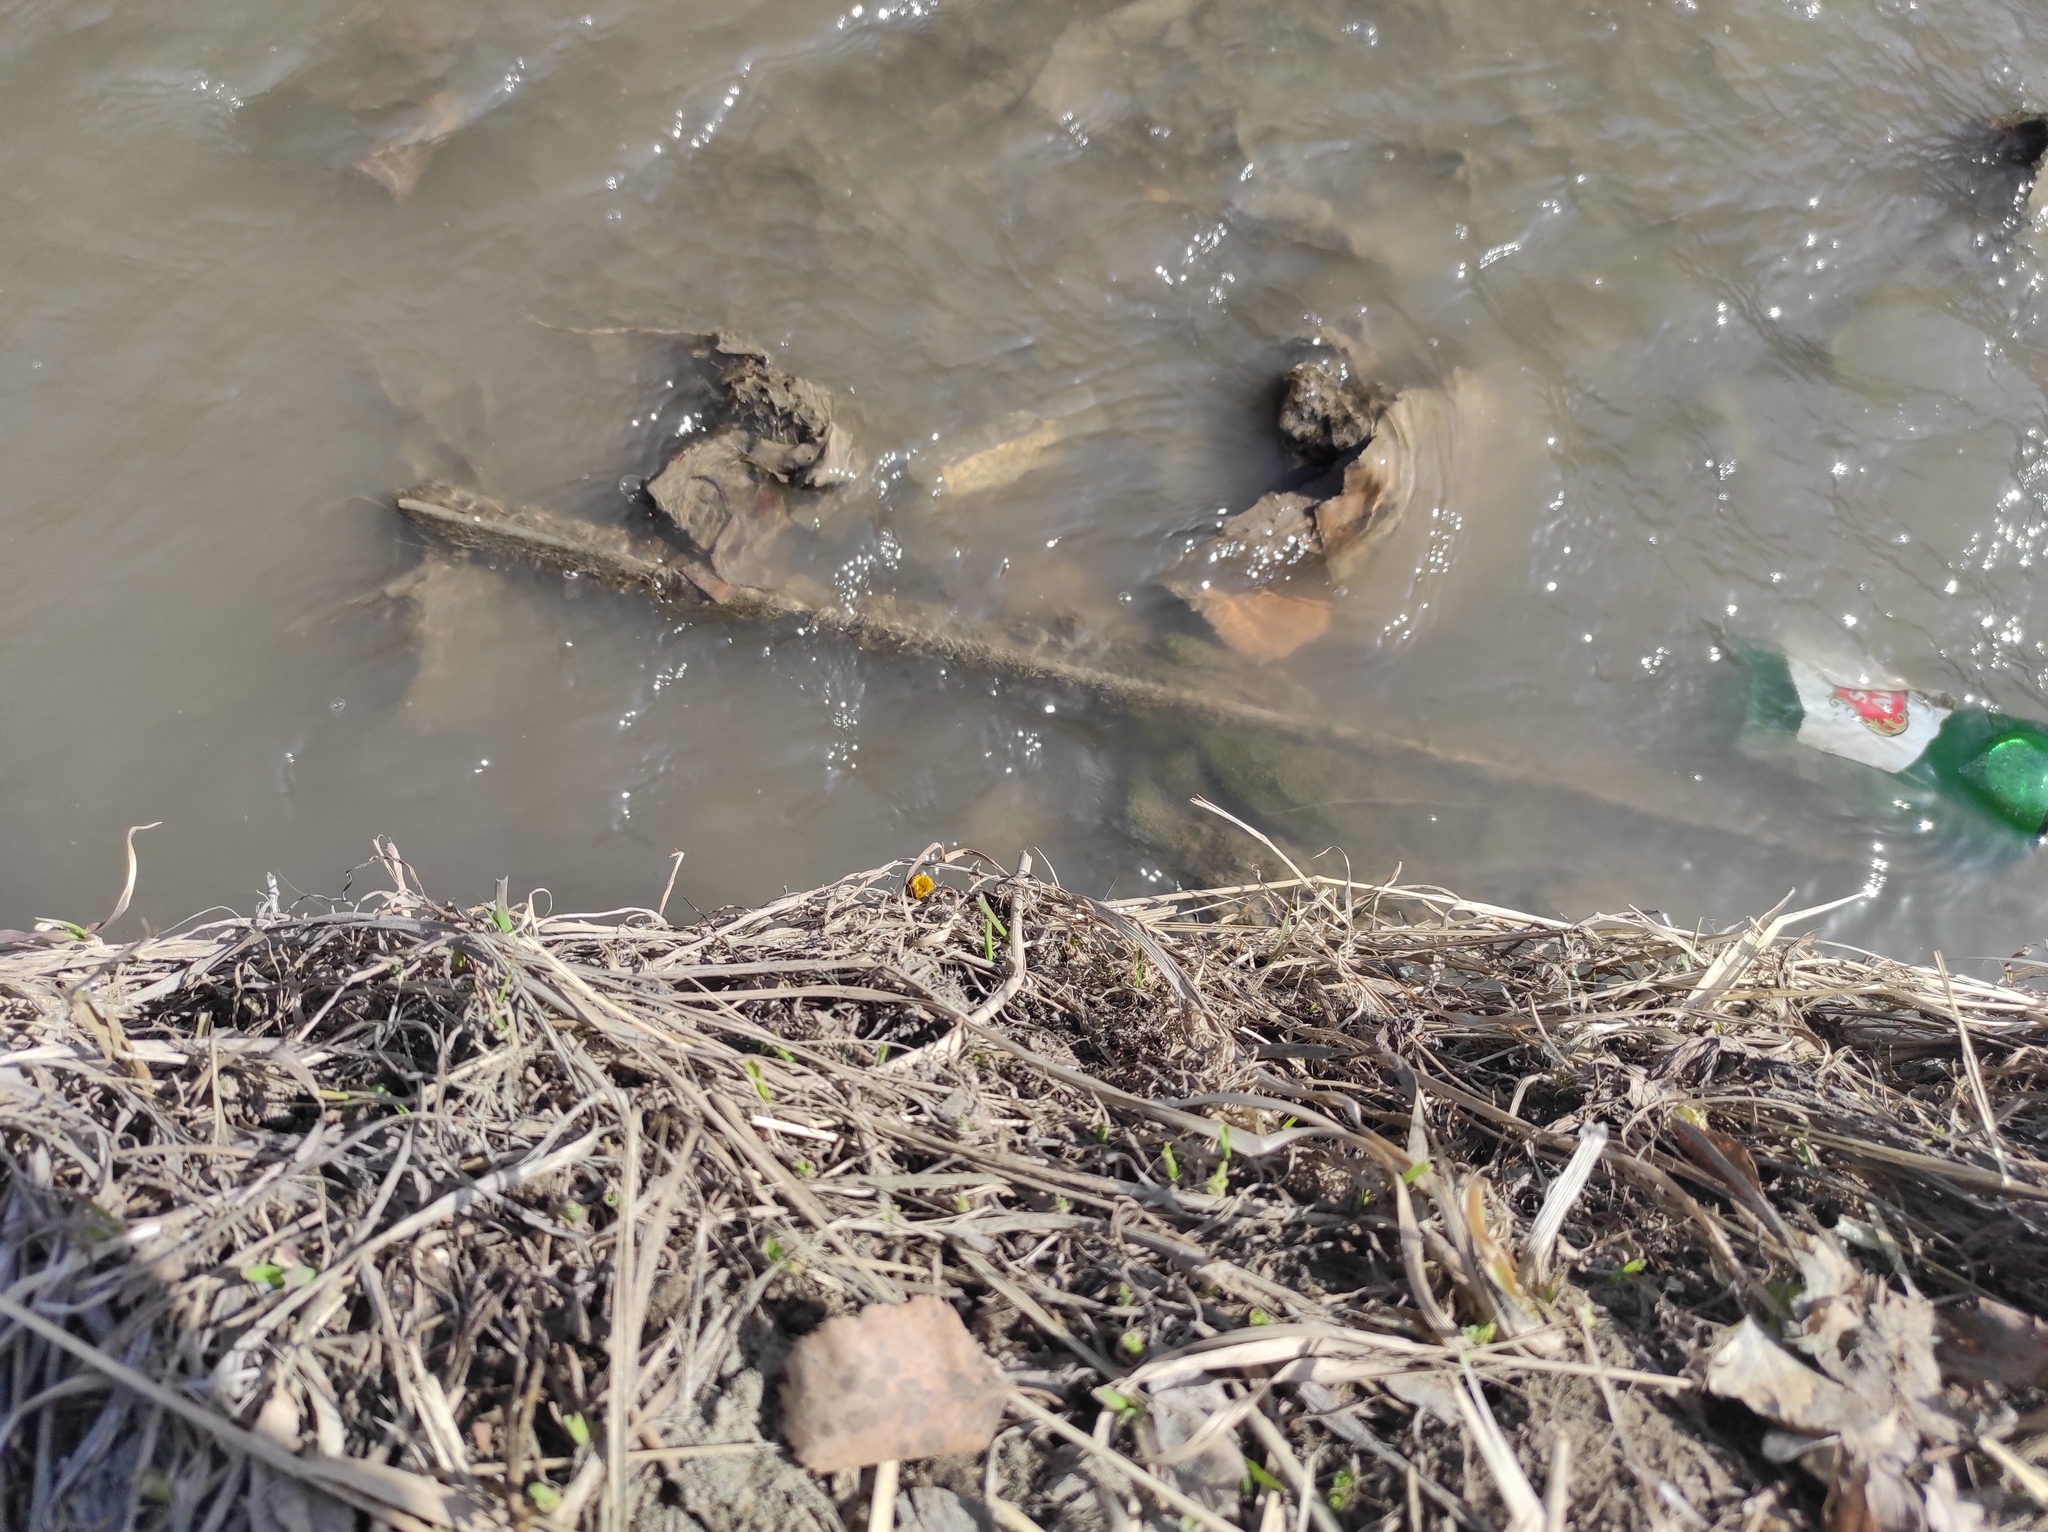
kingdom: Plantae
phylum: Tracheophyta
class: Magnoliopsida
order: Asterales
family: Asteraceae
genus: Tussilago
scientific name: Tussilago farfara
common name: Coltsfoot
